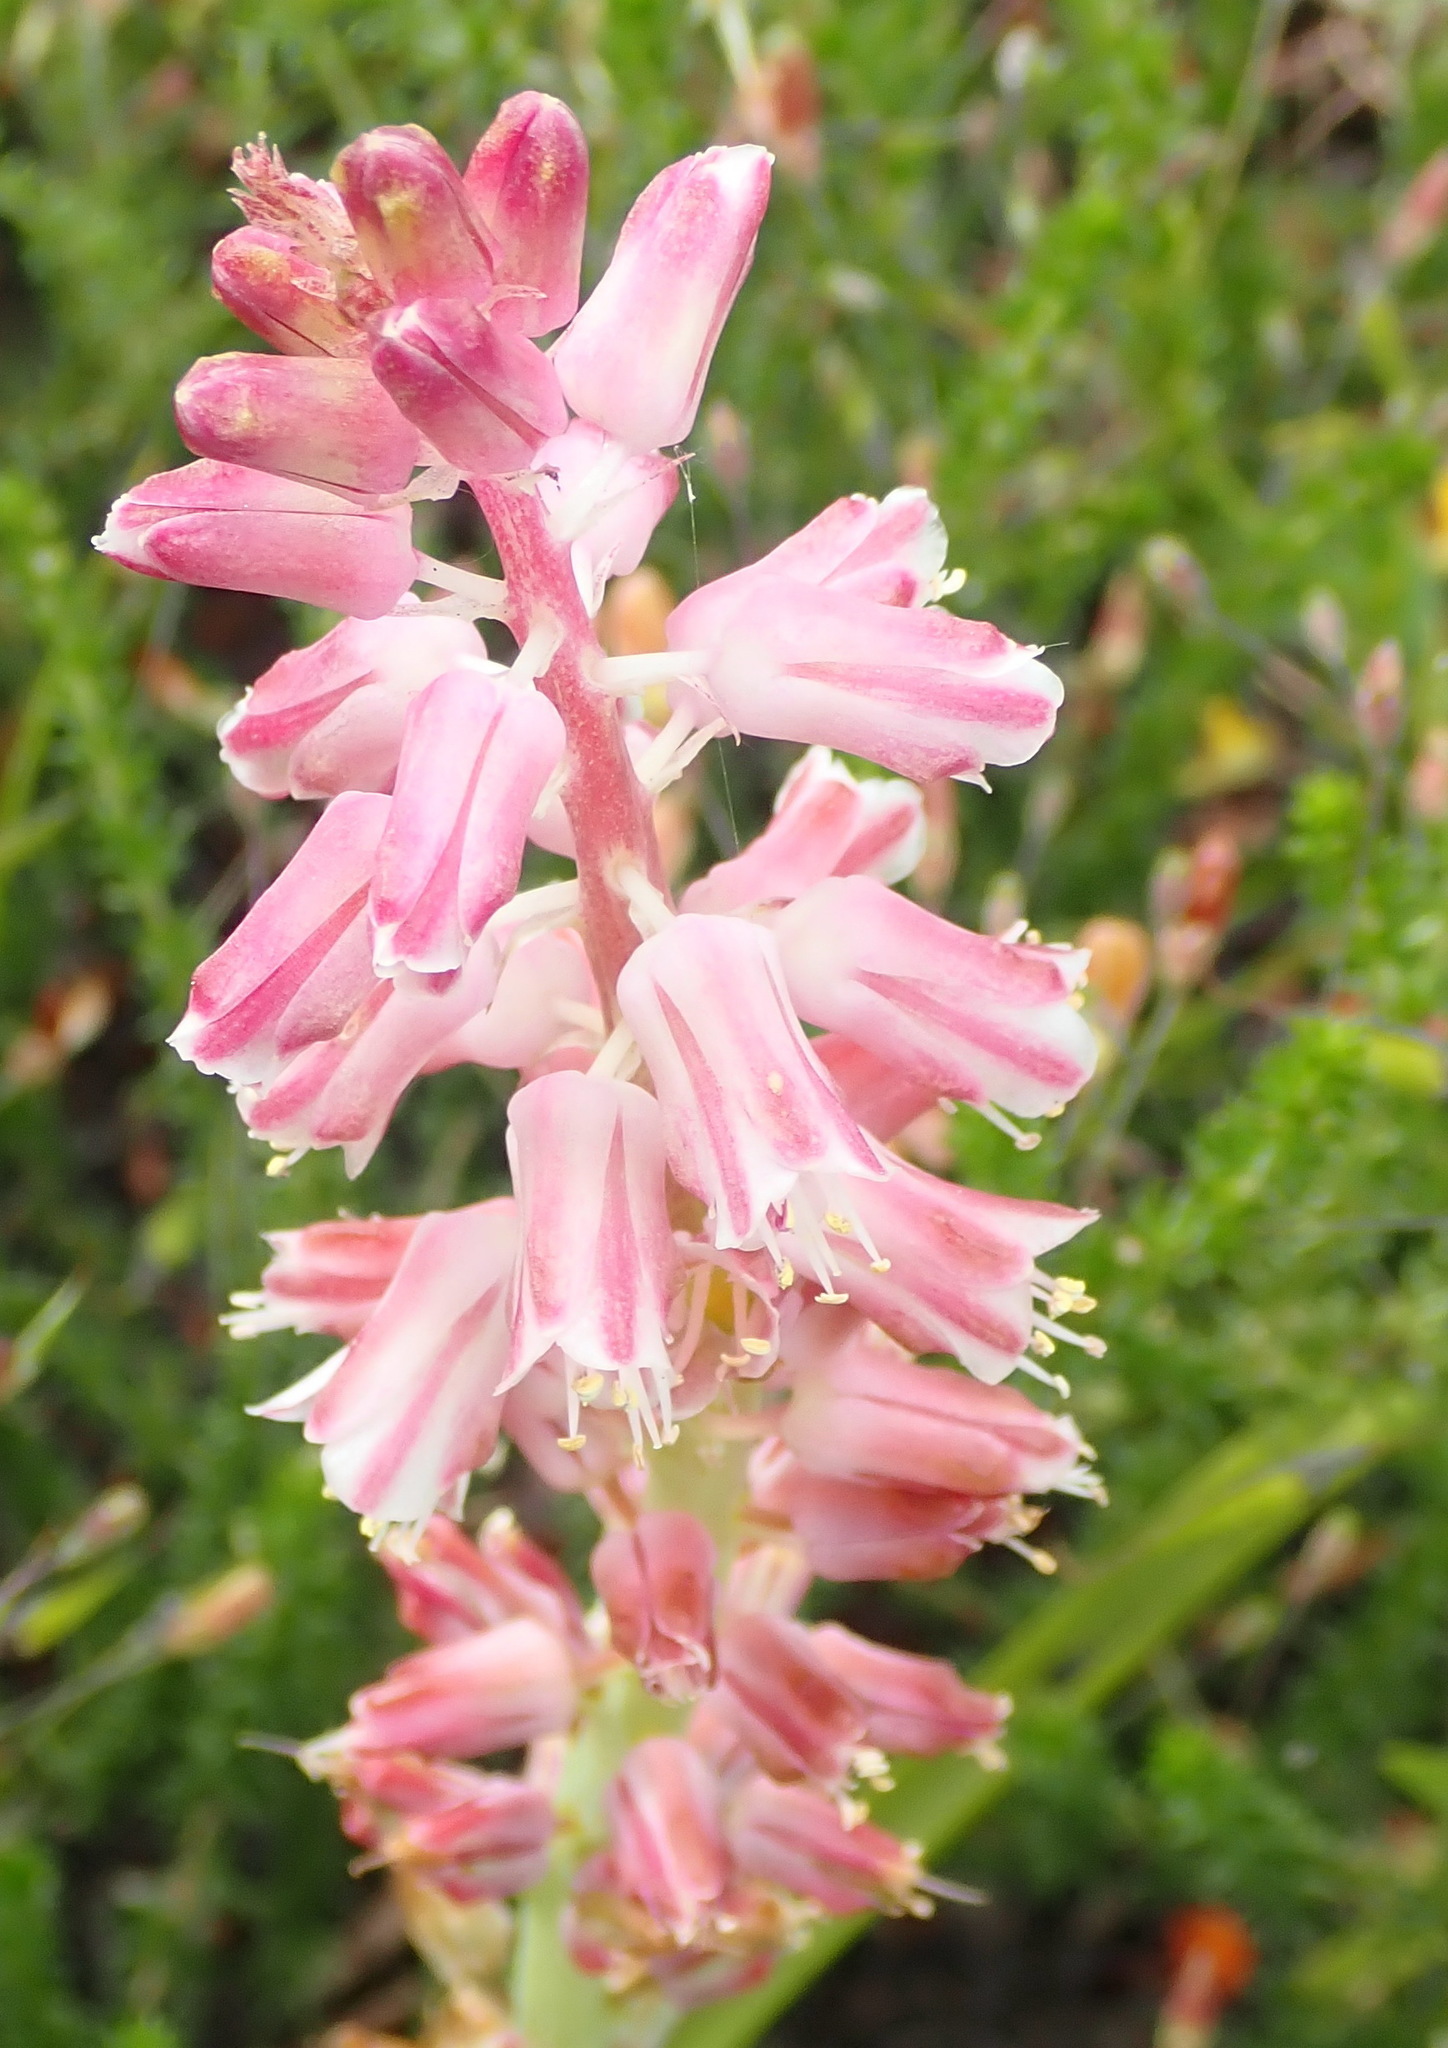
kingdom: Plantae
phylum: Tracheophyta
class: Liliopsida
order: Asparagales
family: Asparagaceae
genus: Lachenalia
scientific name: Lachenalia youngii
